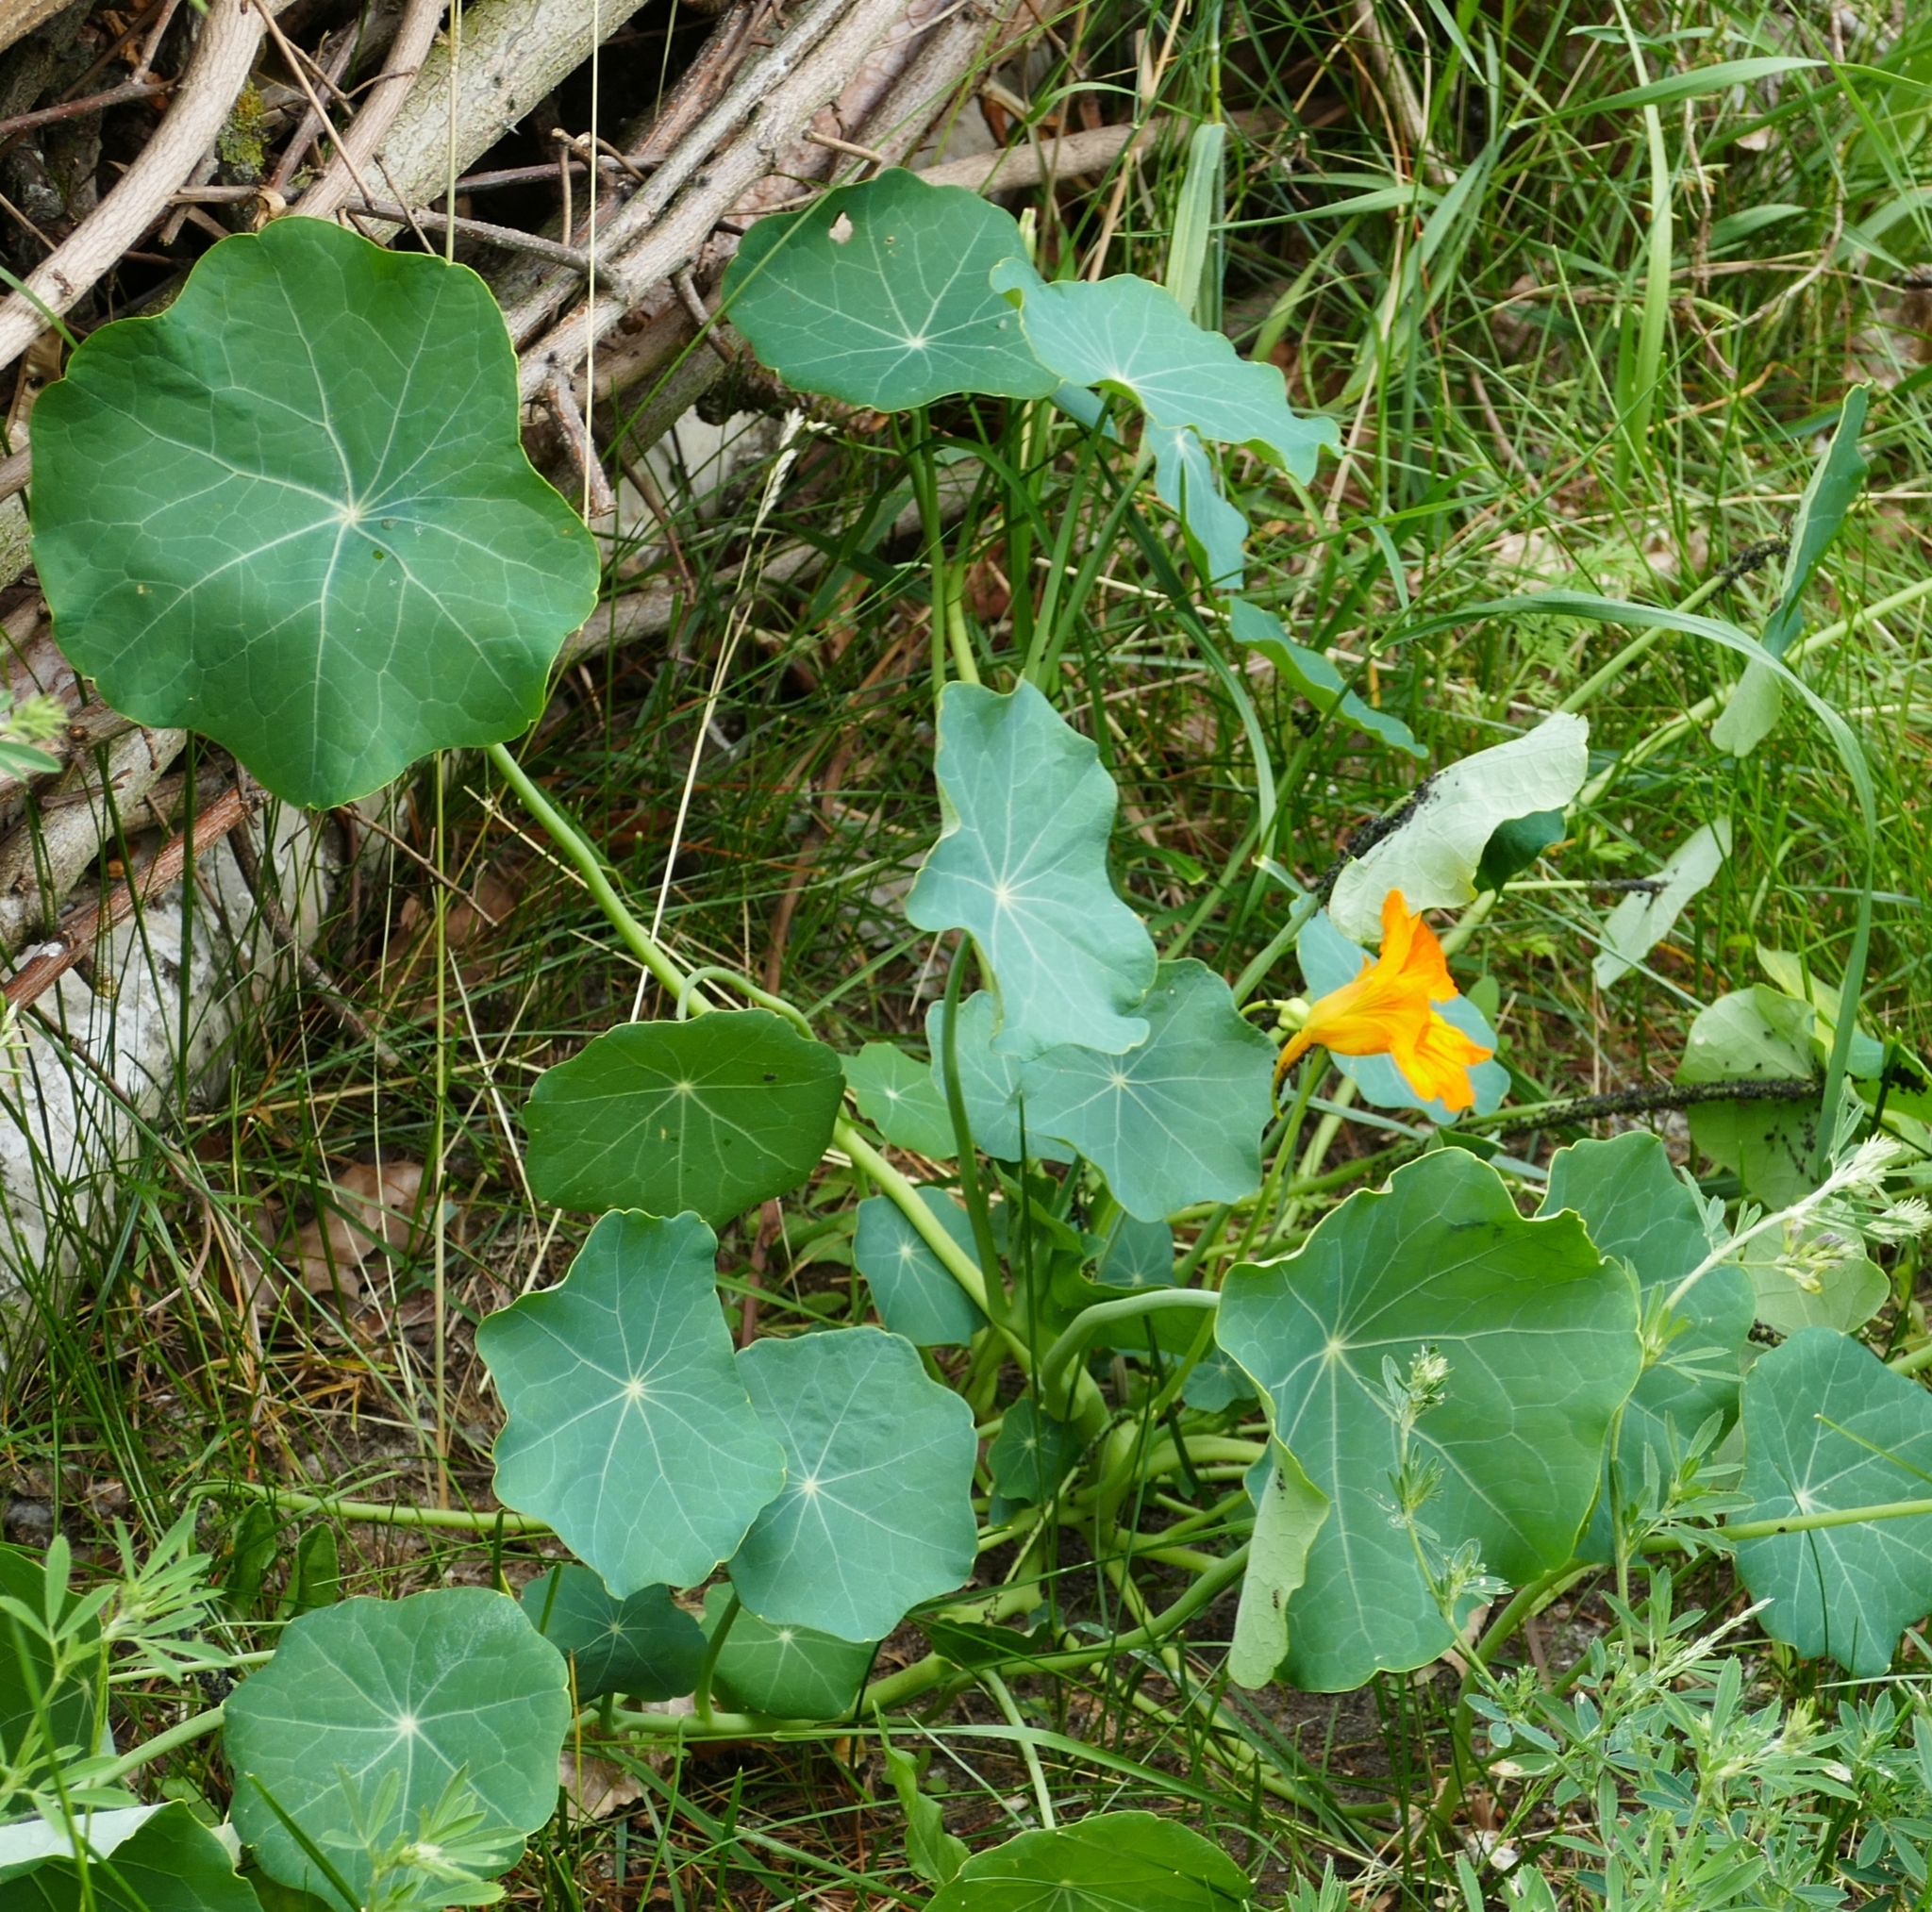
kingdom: Plantae
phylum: Tracheophyta
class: Magnoliopsida
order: Brassicales
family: Tropaeolaceae
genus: Tropaeolum
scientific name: Tropaeolum majus
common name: Nasturtium
